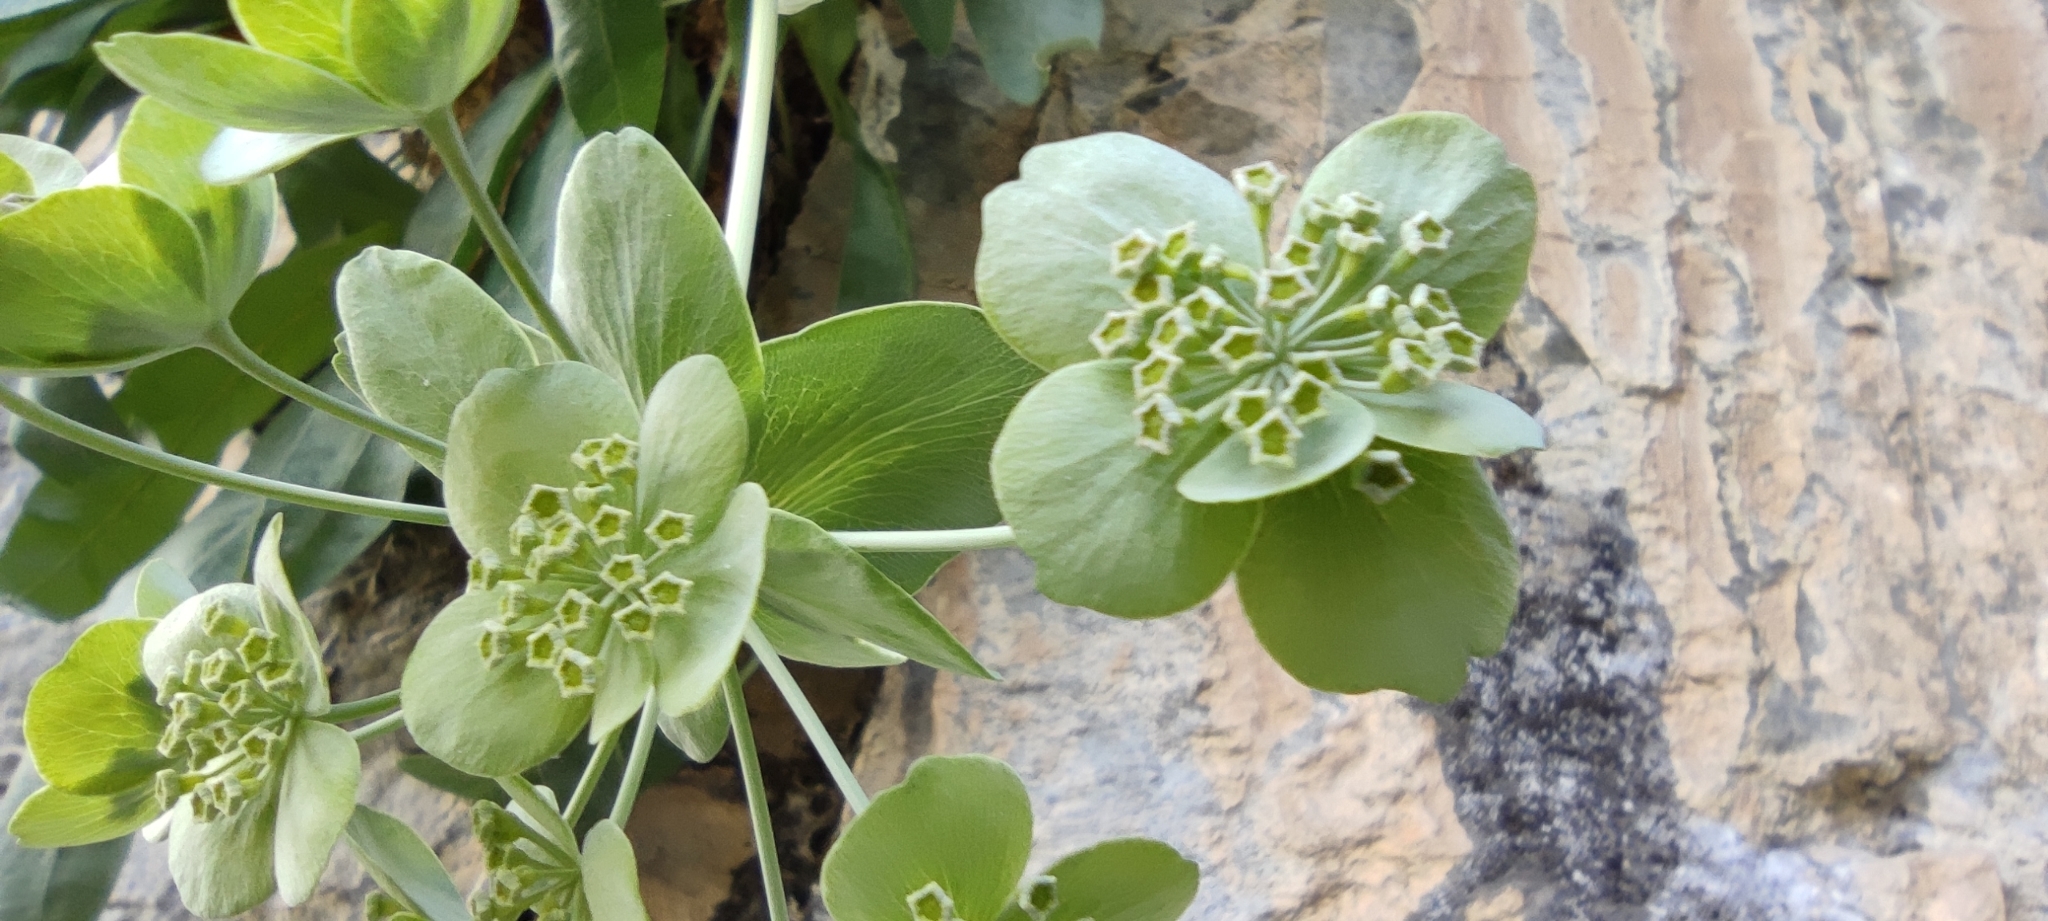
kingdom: Plantae
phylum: Tracheophyta
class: Magnoliopsida
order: Apiales
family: Apiaceae
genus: Bupleurum
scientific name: Bupleurum angulosum
